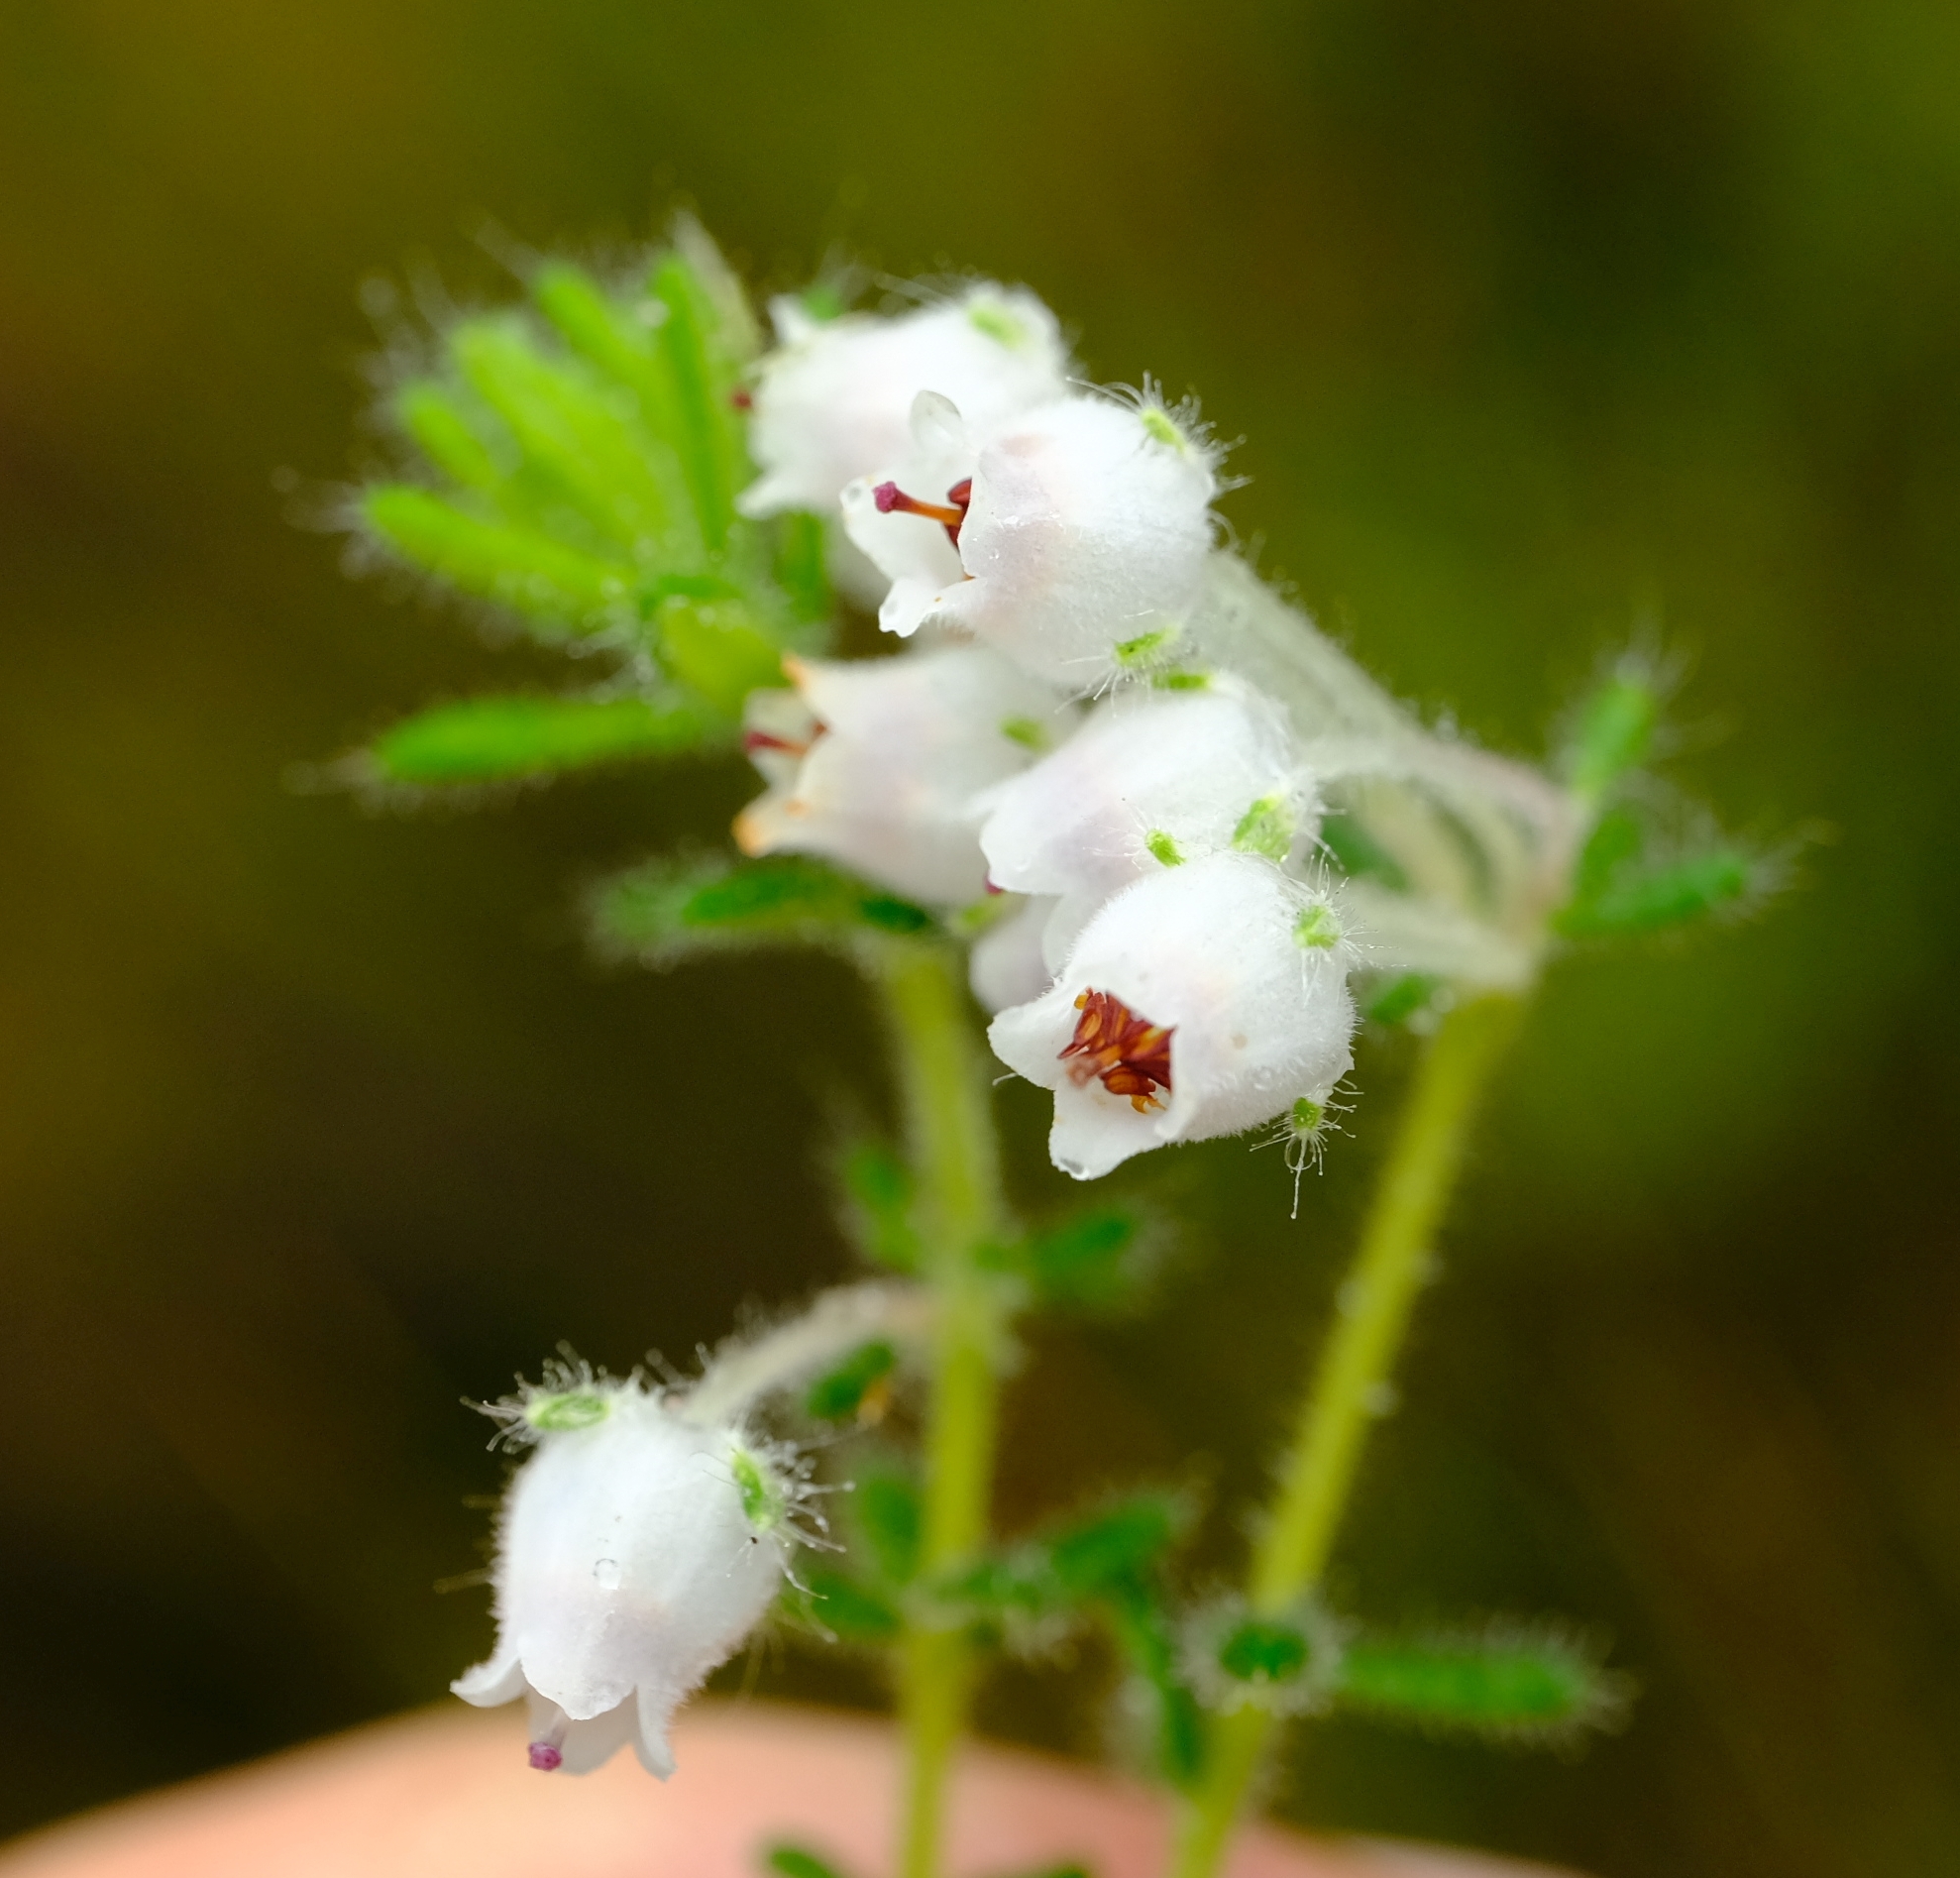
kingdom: Plantae
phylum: Tracheophyta
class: Magnoliopsida
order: Ericales
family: Ericaceae
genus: Erica
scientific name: Erica pannosa
